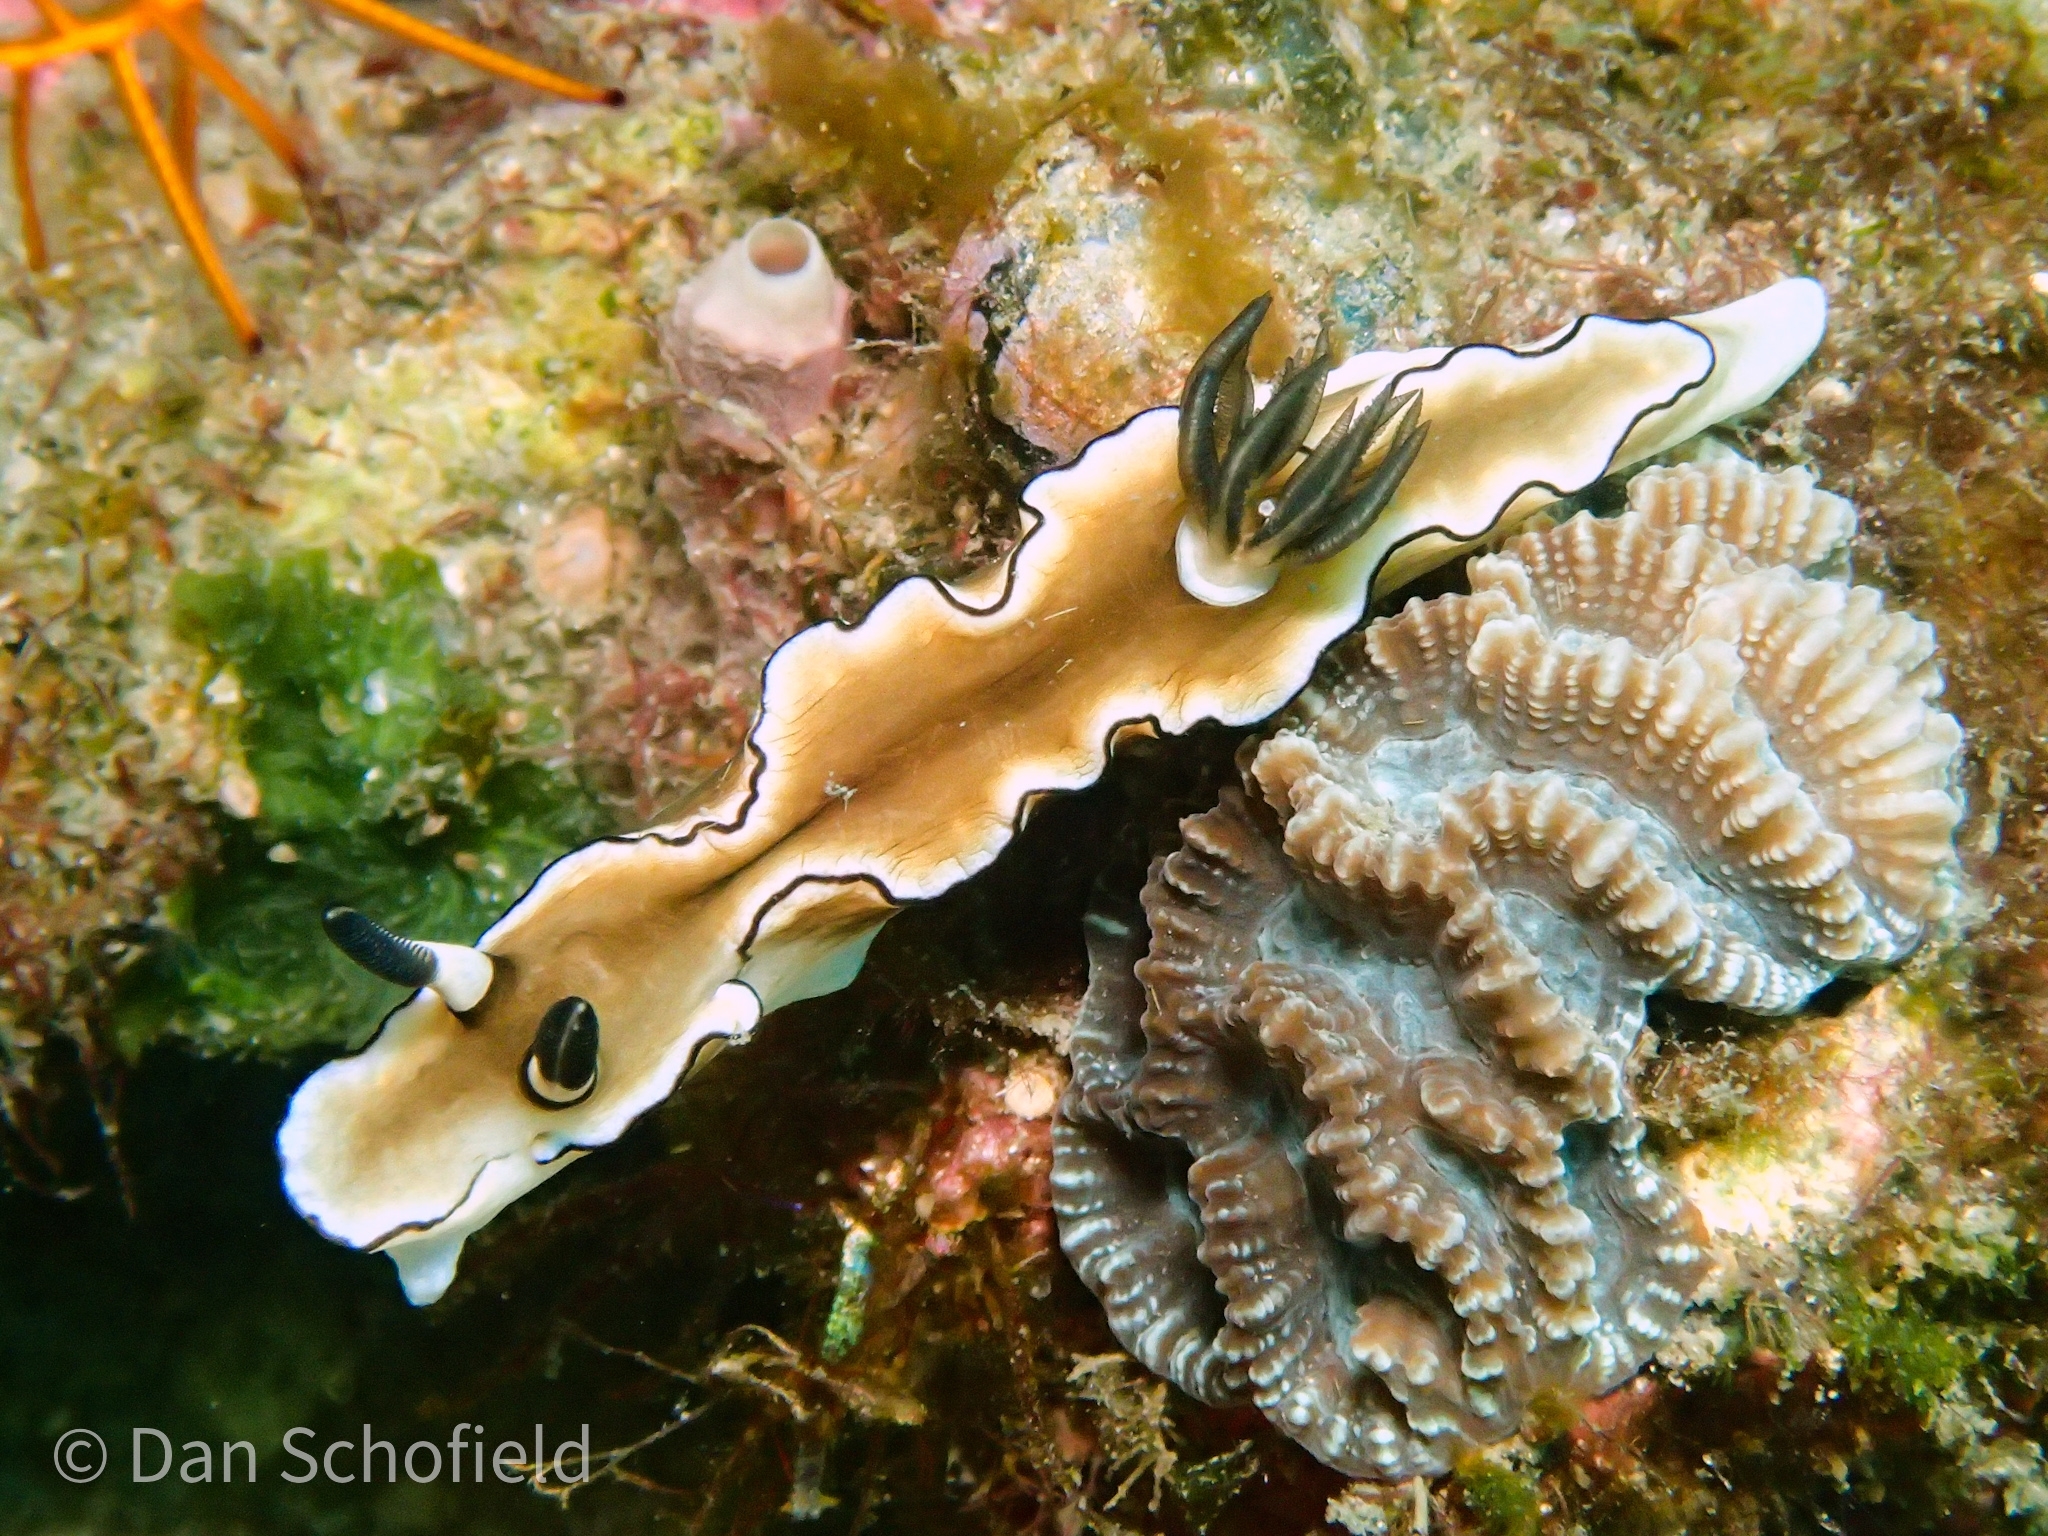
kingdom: Animalia
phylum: Mollusca
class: Gastropoda
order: Nudibranchia
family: Chromodorididae
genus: Doriprismatica
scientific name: Doriprismatica atromarginata
